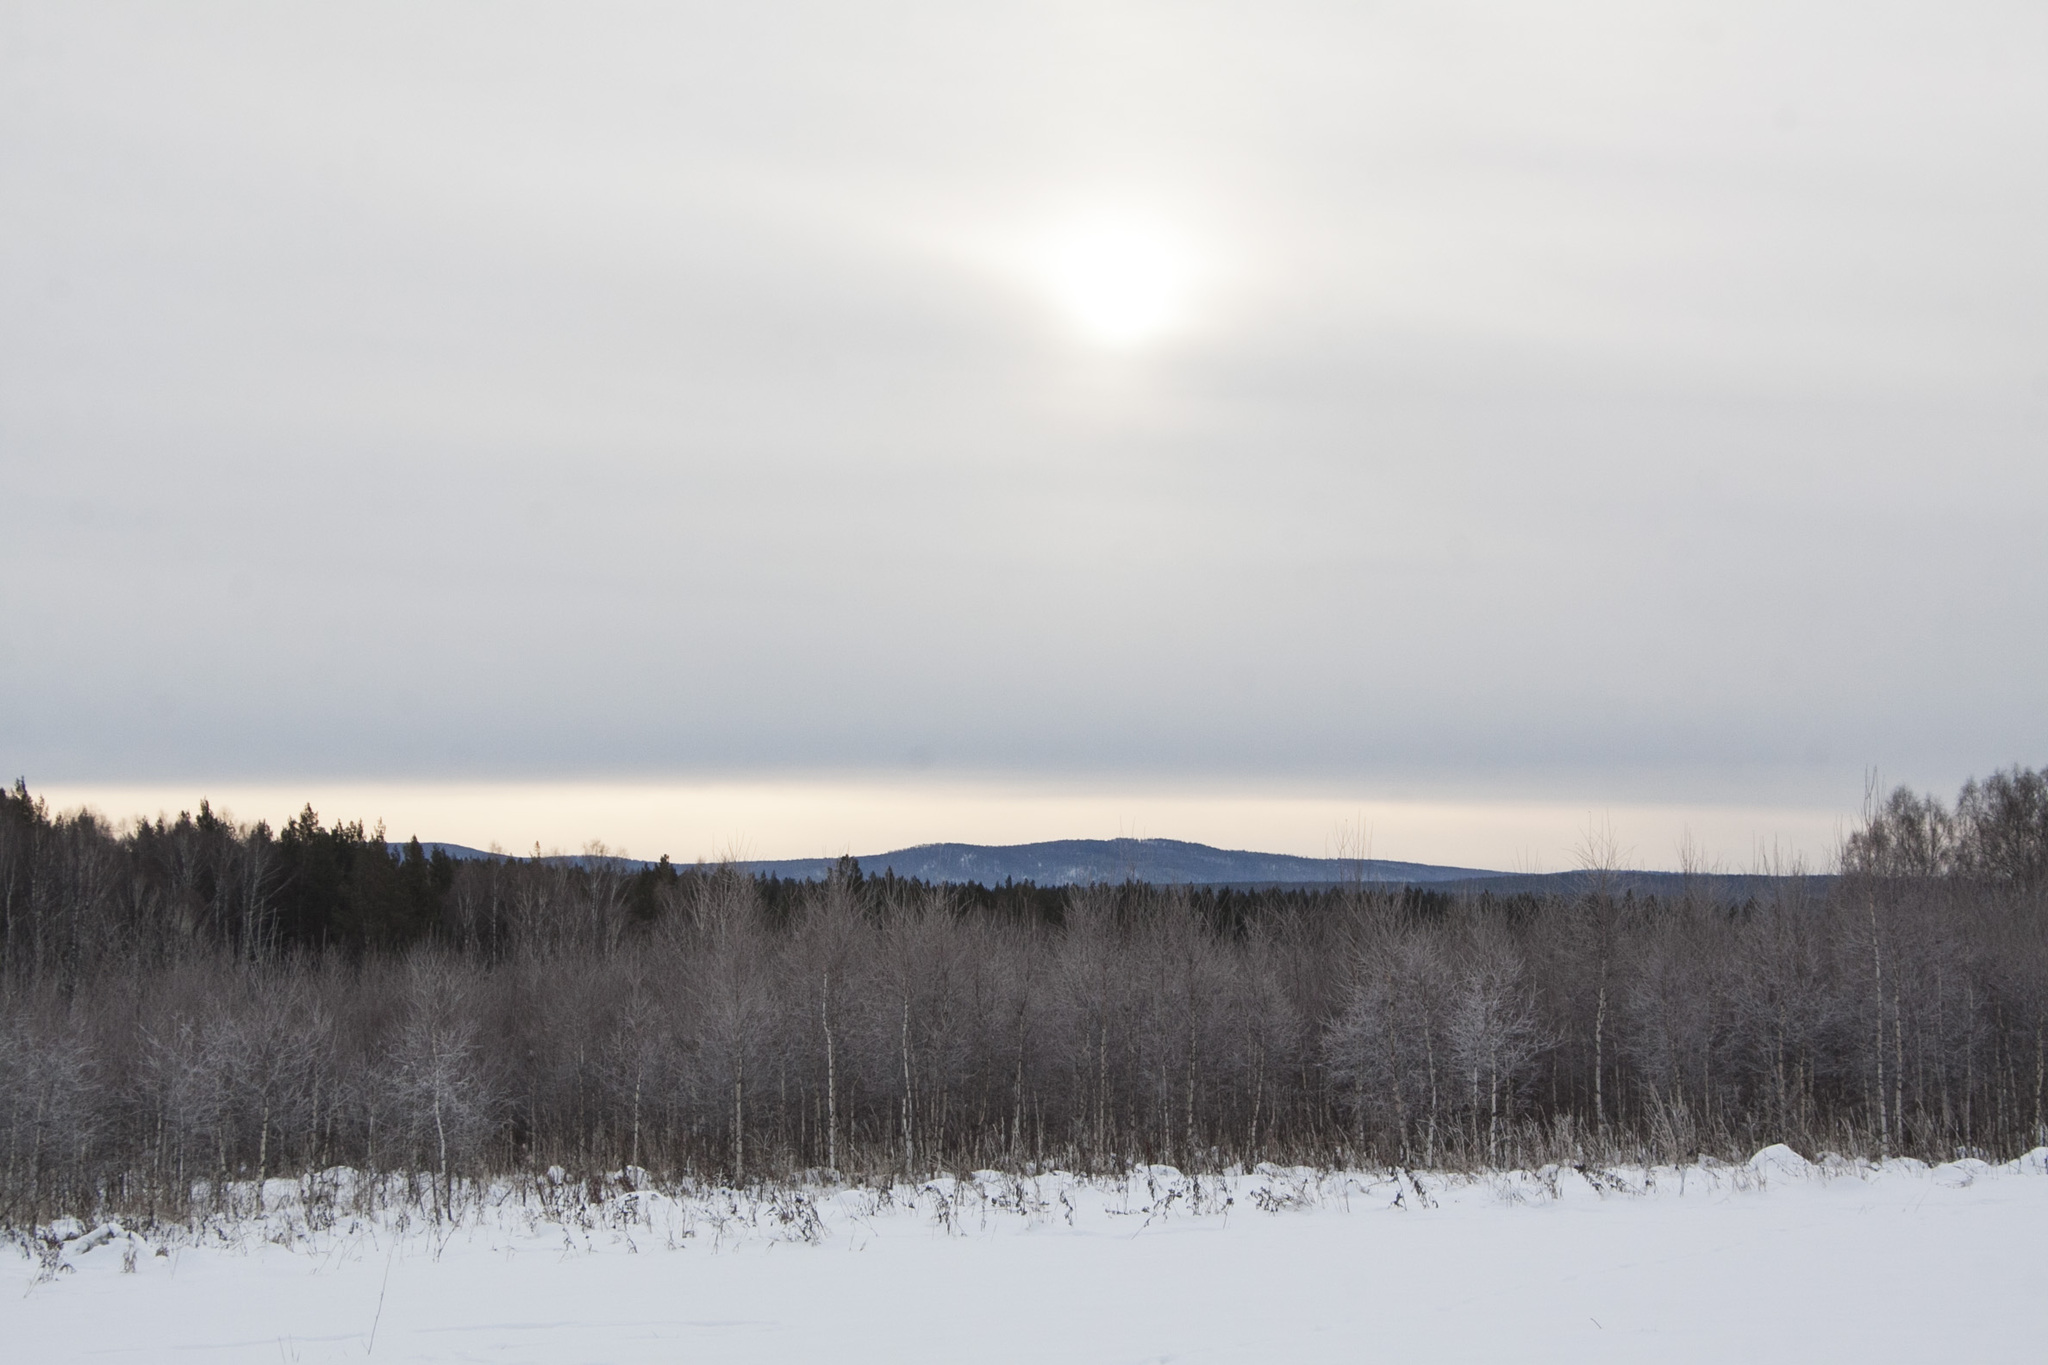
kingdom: Plantae
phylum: Tracheophyta
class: Magnoliopsida
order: Fagales
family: Betulaceae
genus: Betula
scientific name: Betula pendula
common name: Silver birch
